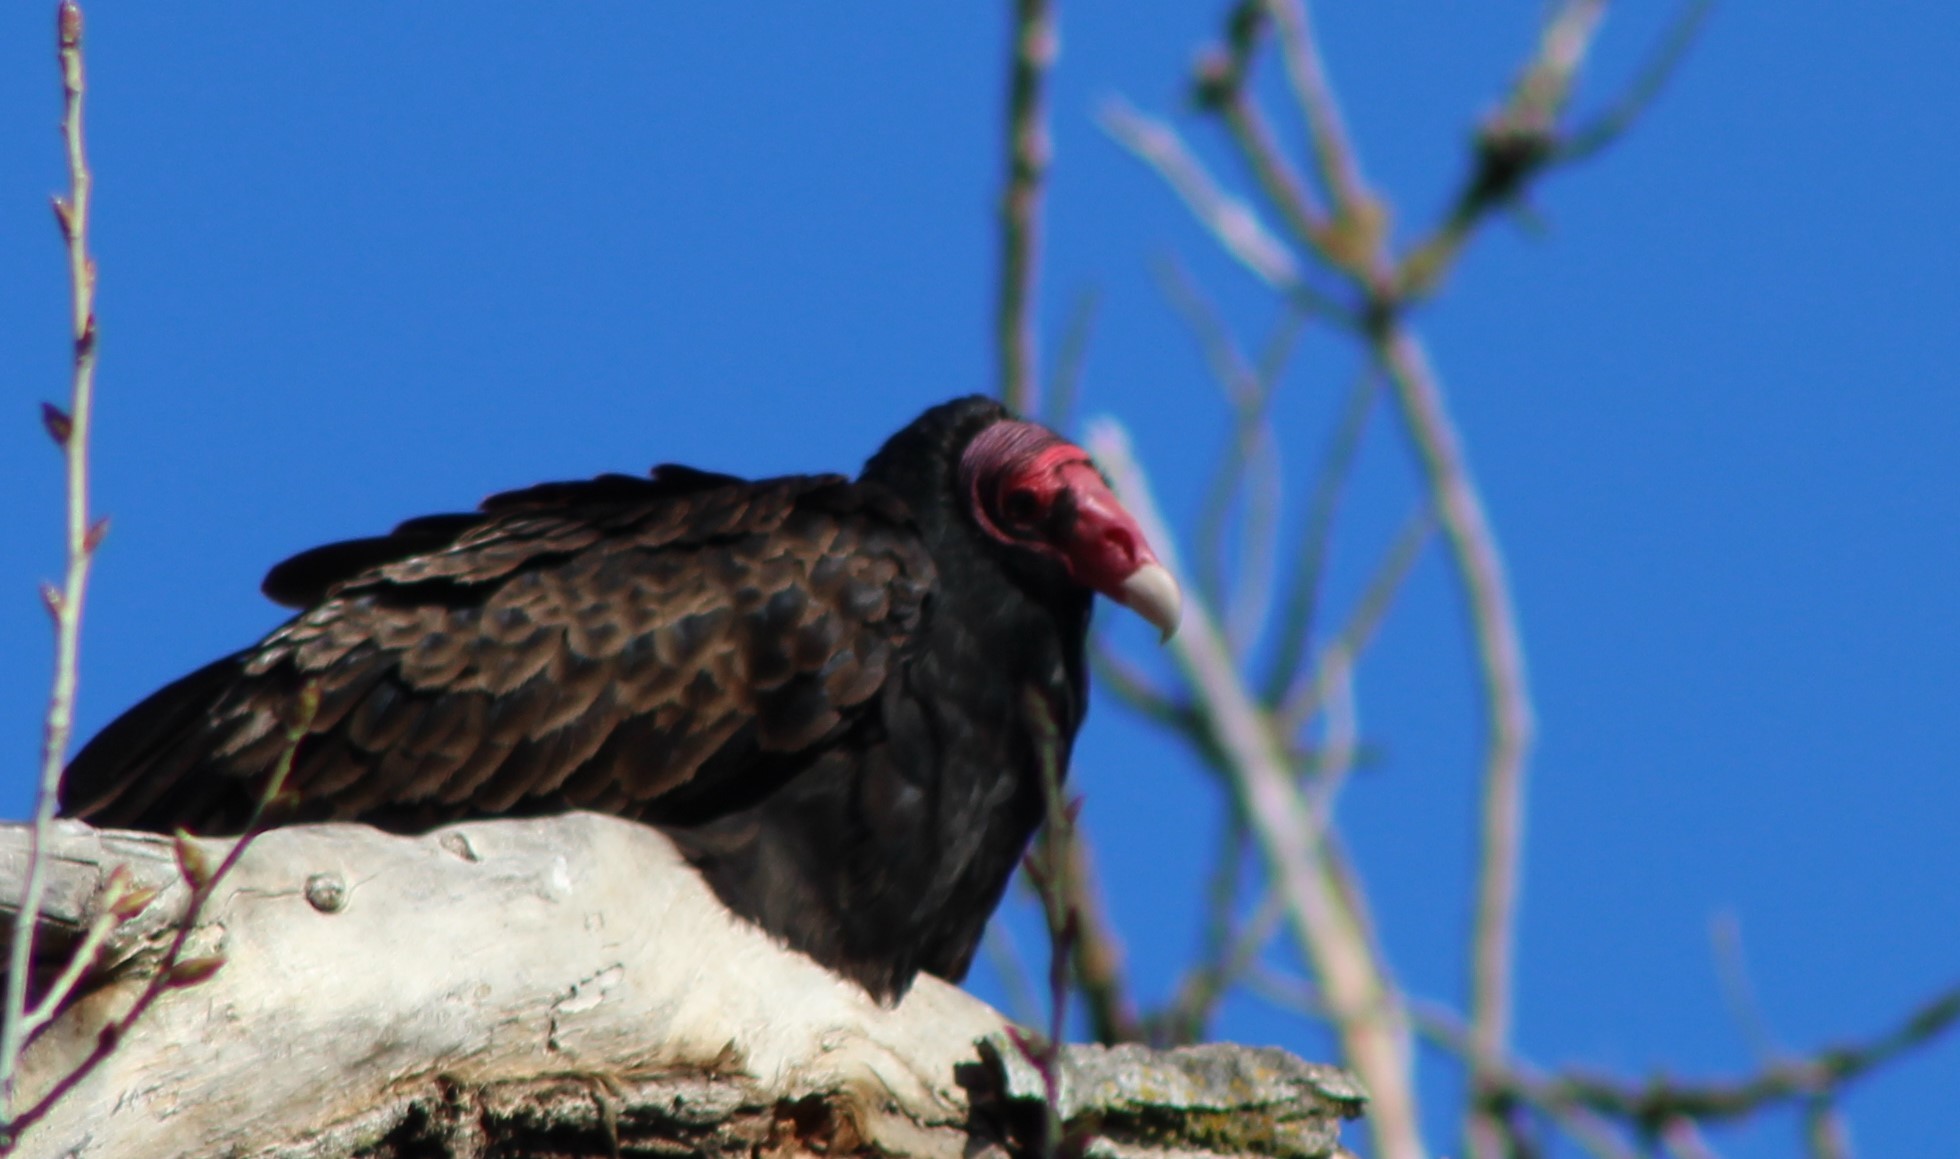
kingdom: Animalia
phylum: Chordata
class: Aves
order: Accipitriformes
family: Cathartidae
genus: Cathartes
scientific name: Cathartes aura
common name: Turkey vulture
